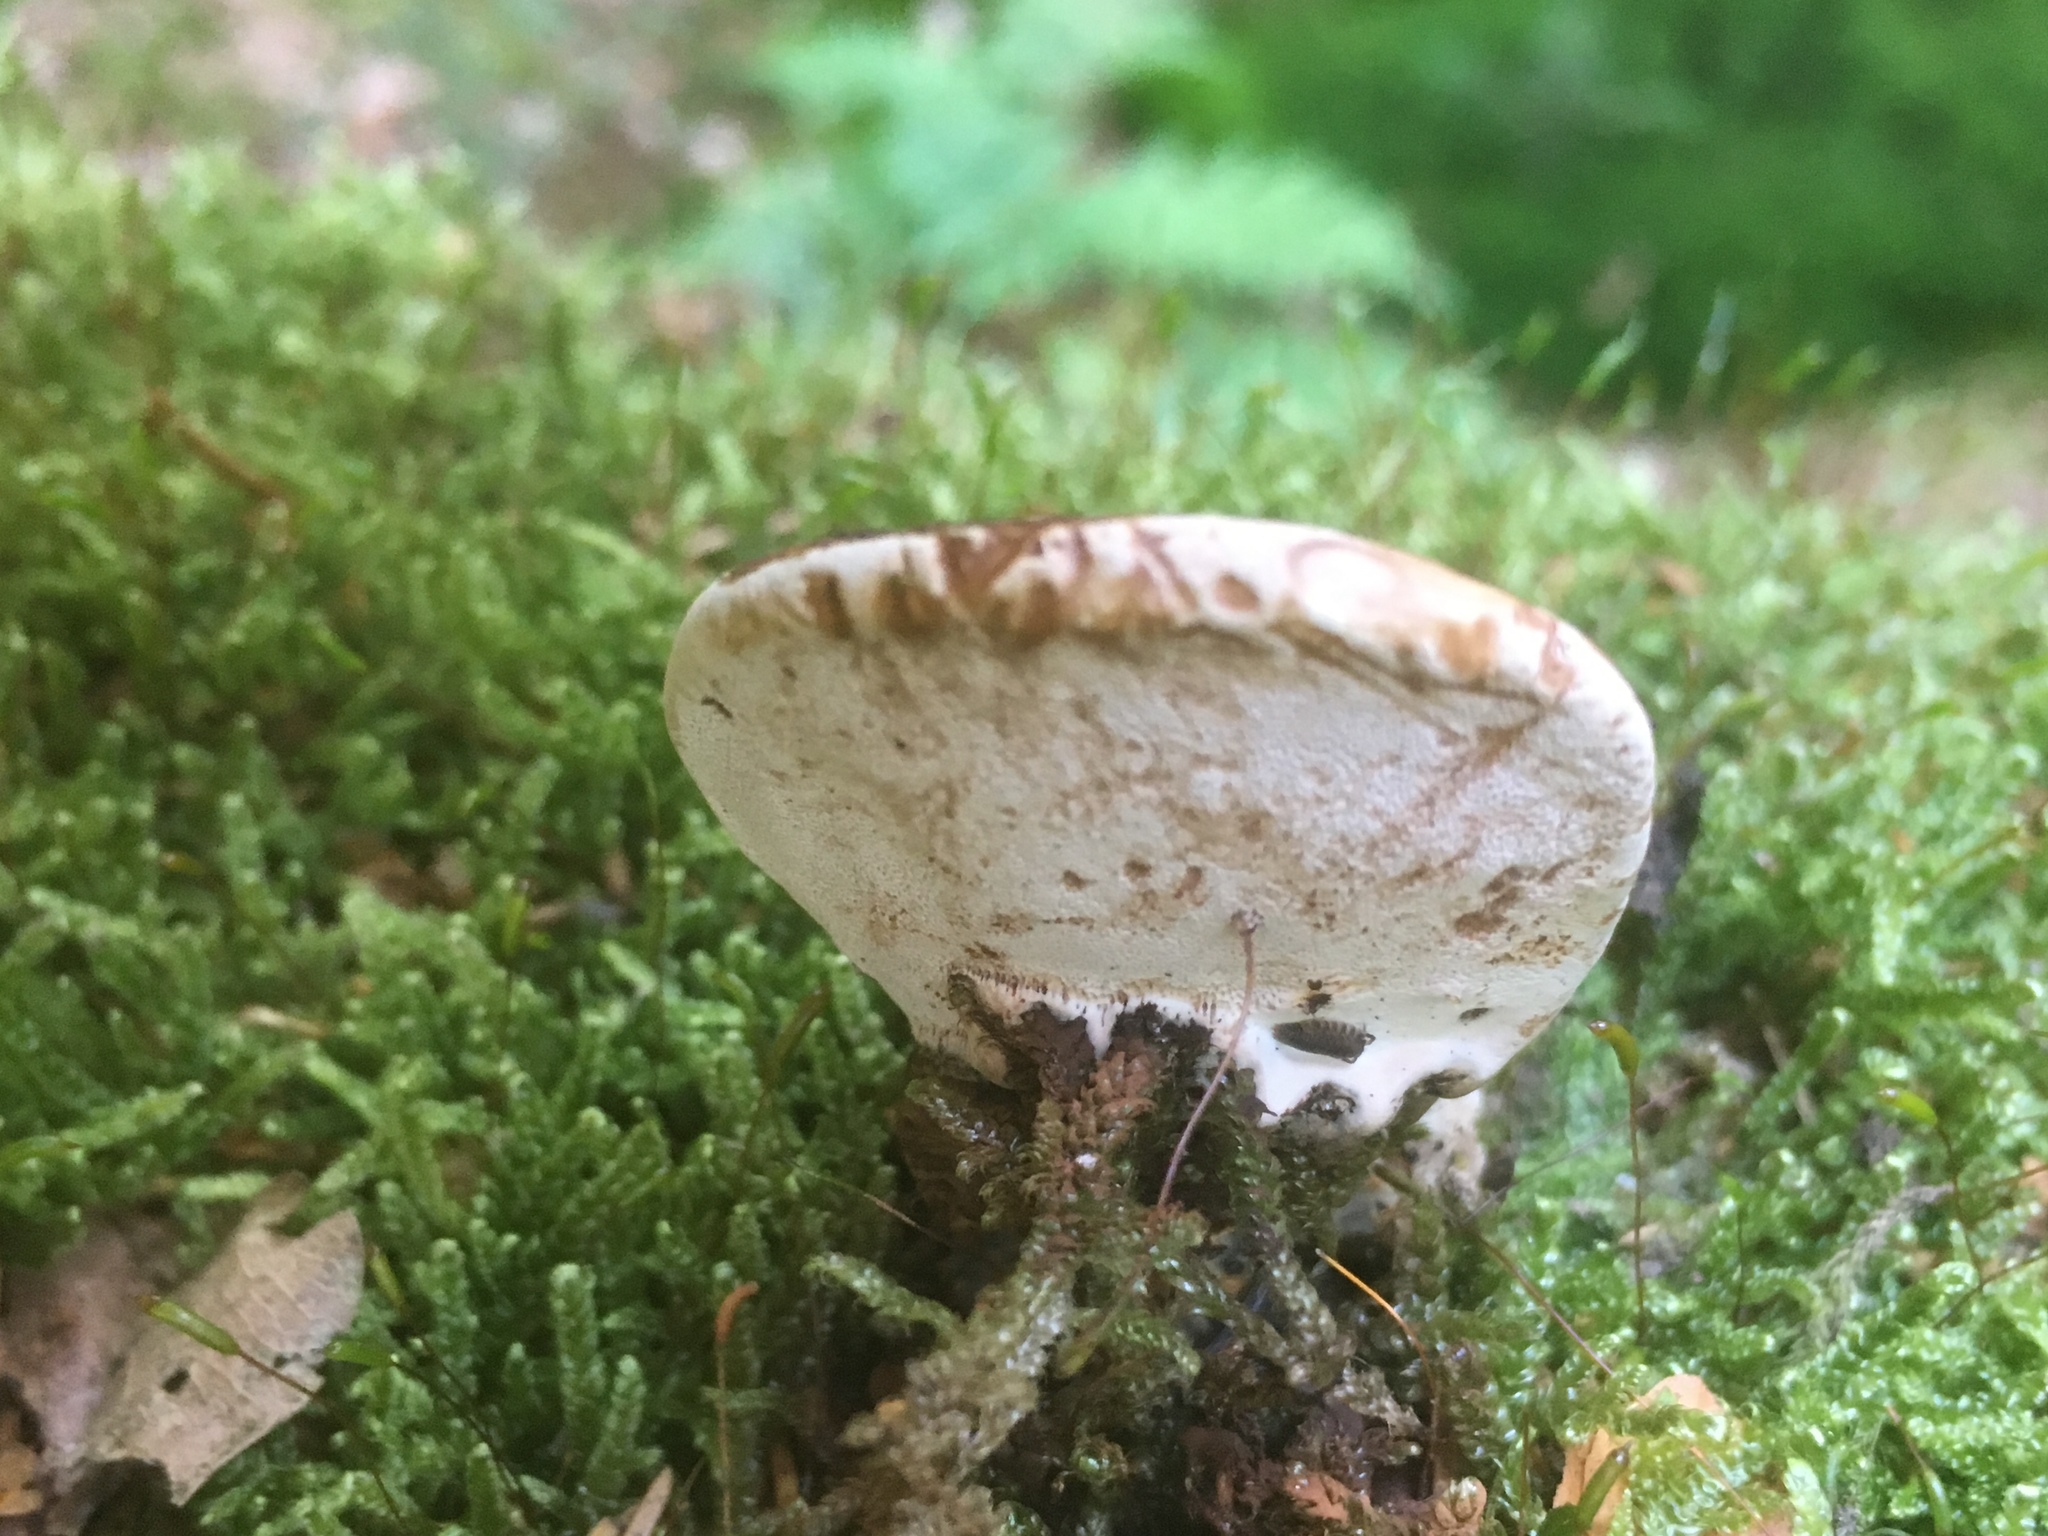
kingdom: Fungi
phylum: Basidiomycota
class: Agaricomycetes
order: Polyporales
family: Polyporaceae
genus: Fomes
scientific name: Fomes fomentarius
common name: Hoof fungus
